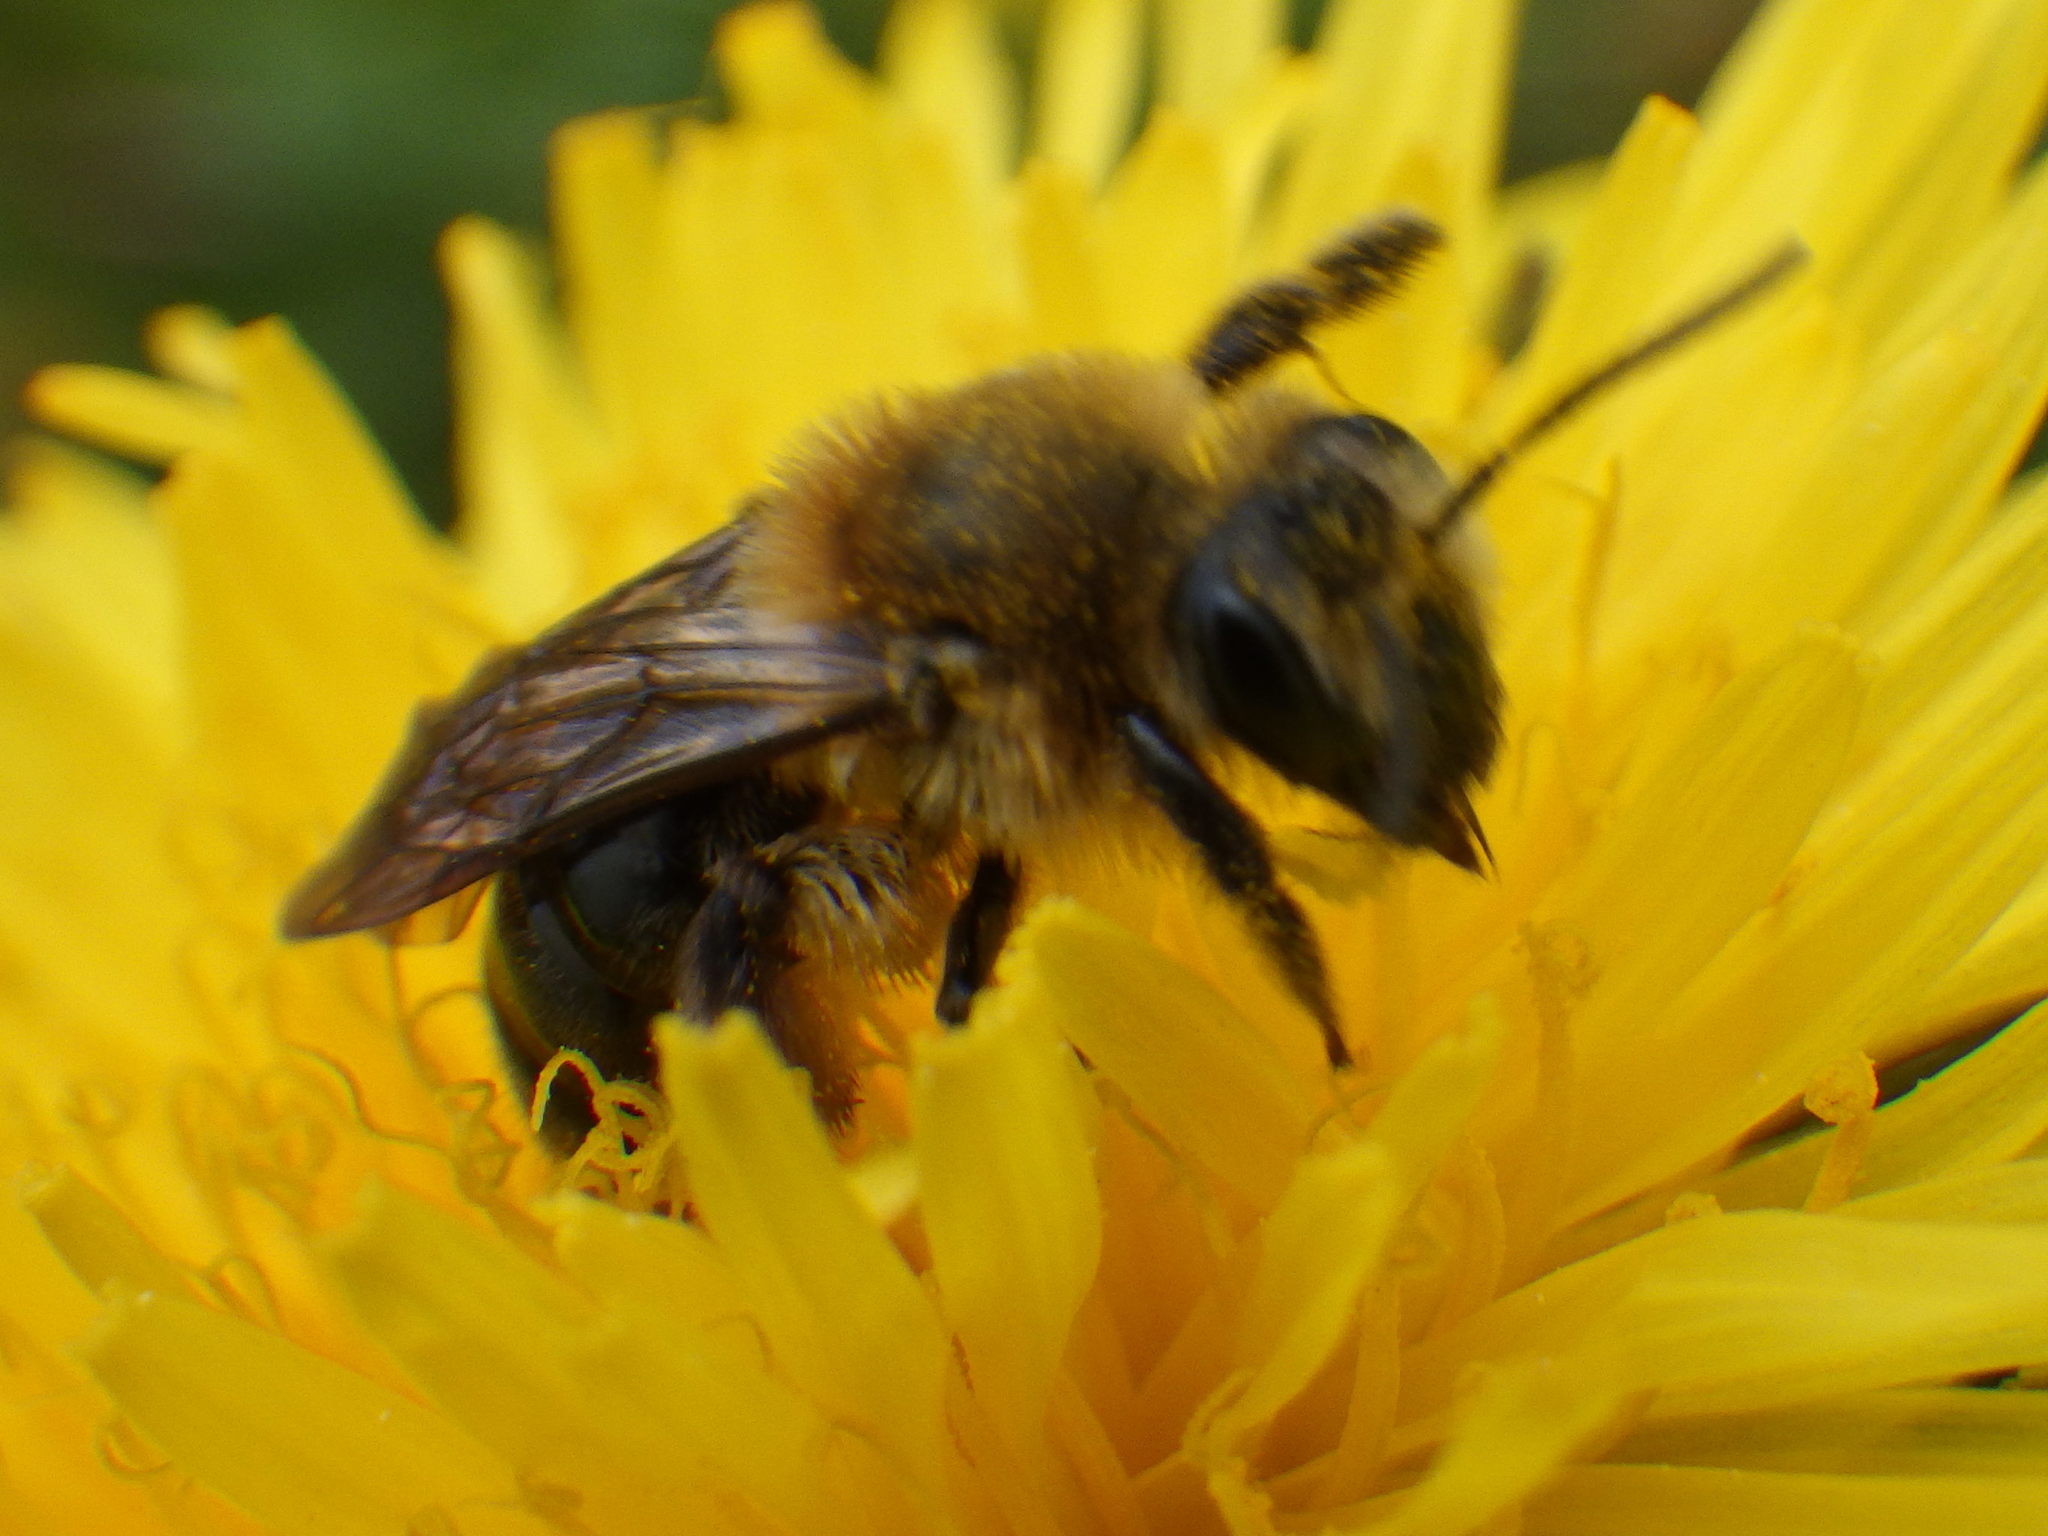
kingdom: Animalia
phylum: Arthropoda
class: Insecta
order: Hymenoptera
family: Andrenidae
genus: Andrena
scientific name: Andrena dunningi
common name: Dunning's miner
